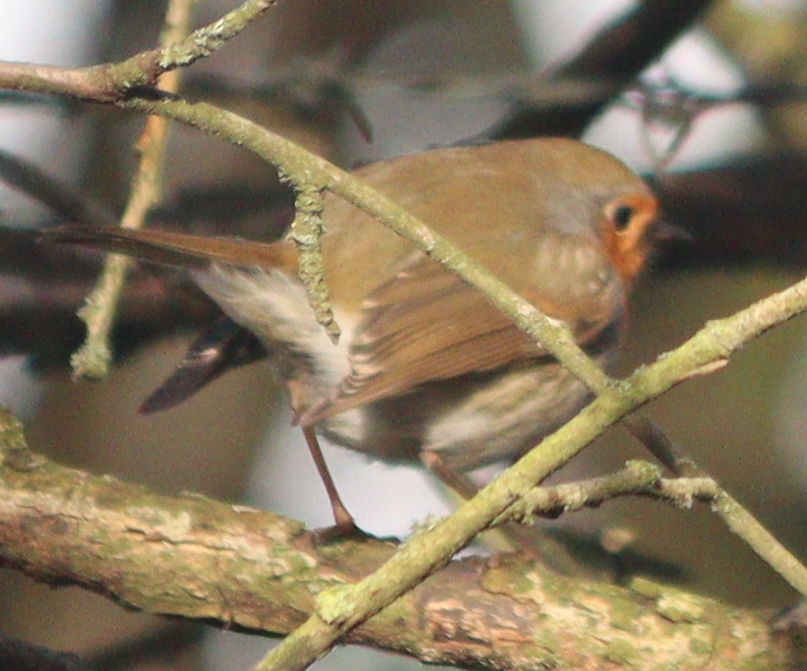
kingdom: Animalia
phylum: Chordata
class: Aves
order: Passeriformes
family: Muscicapidae
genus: Erithacus
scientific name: Erithacus rubecula
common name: European robin
